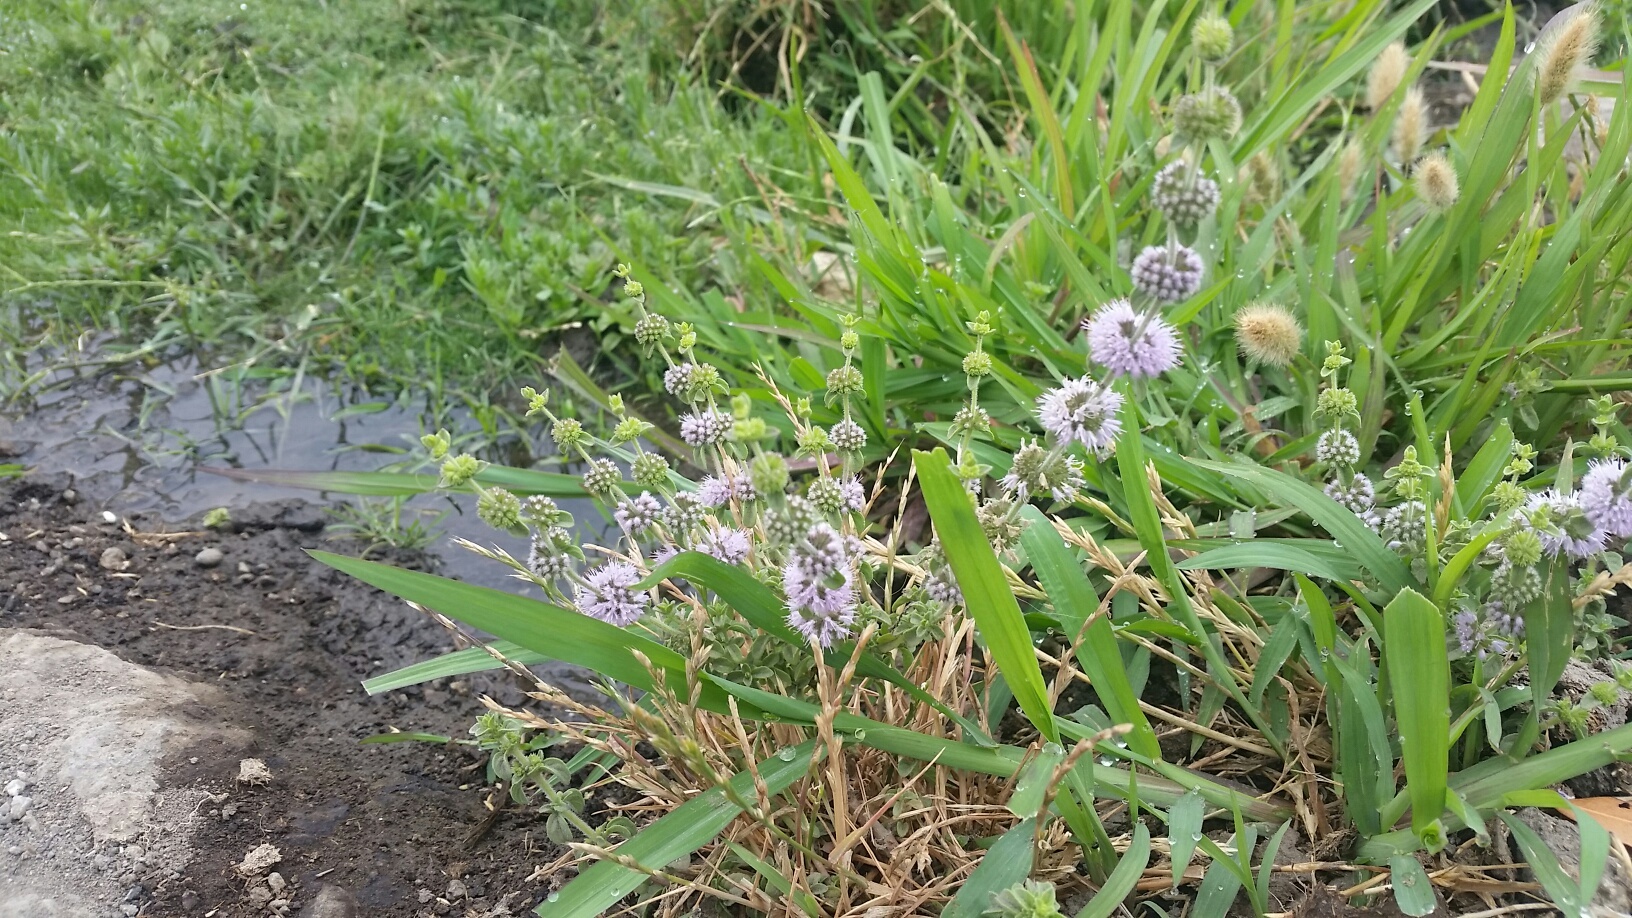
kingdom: Plantae
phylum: Tracheophyta
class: Magnoliopsida
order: Lamiales
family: Lamiaceae
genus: Mentha
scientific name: Mentha pulegium
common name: Pennyroyal
